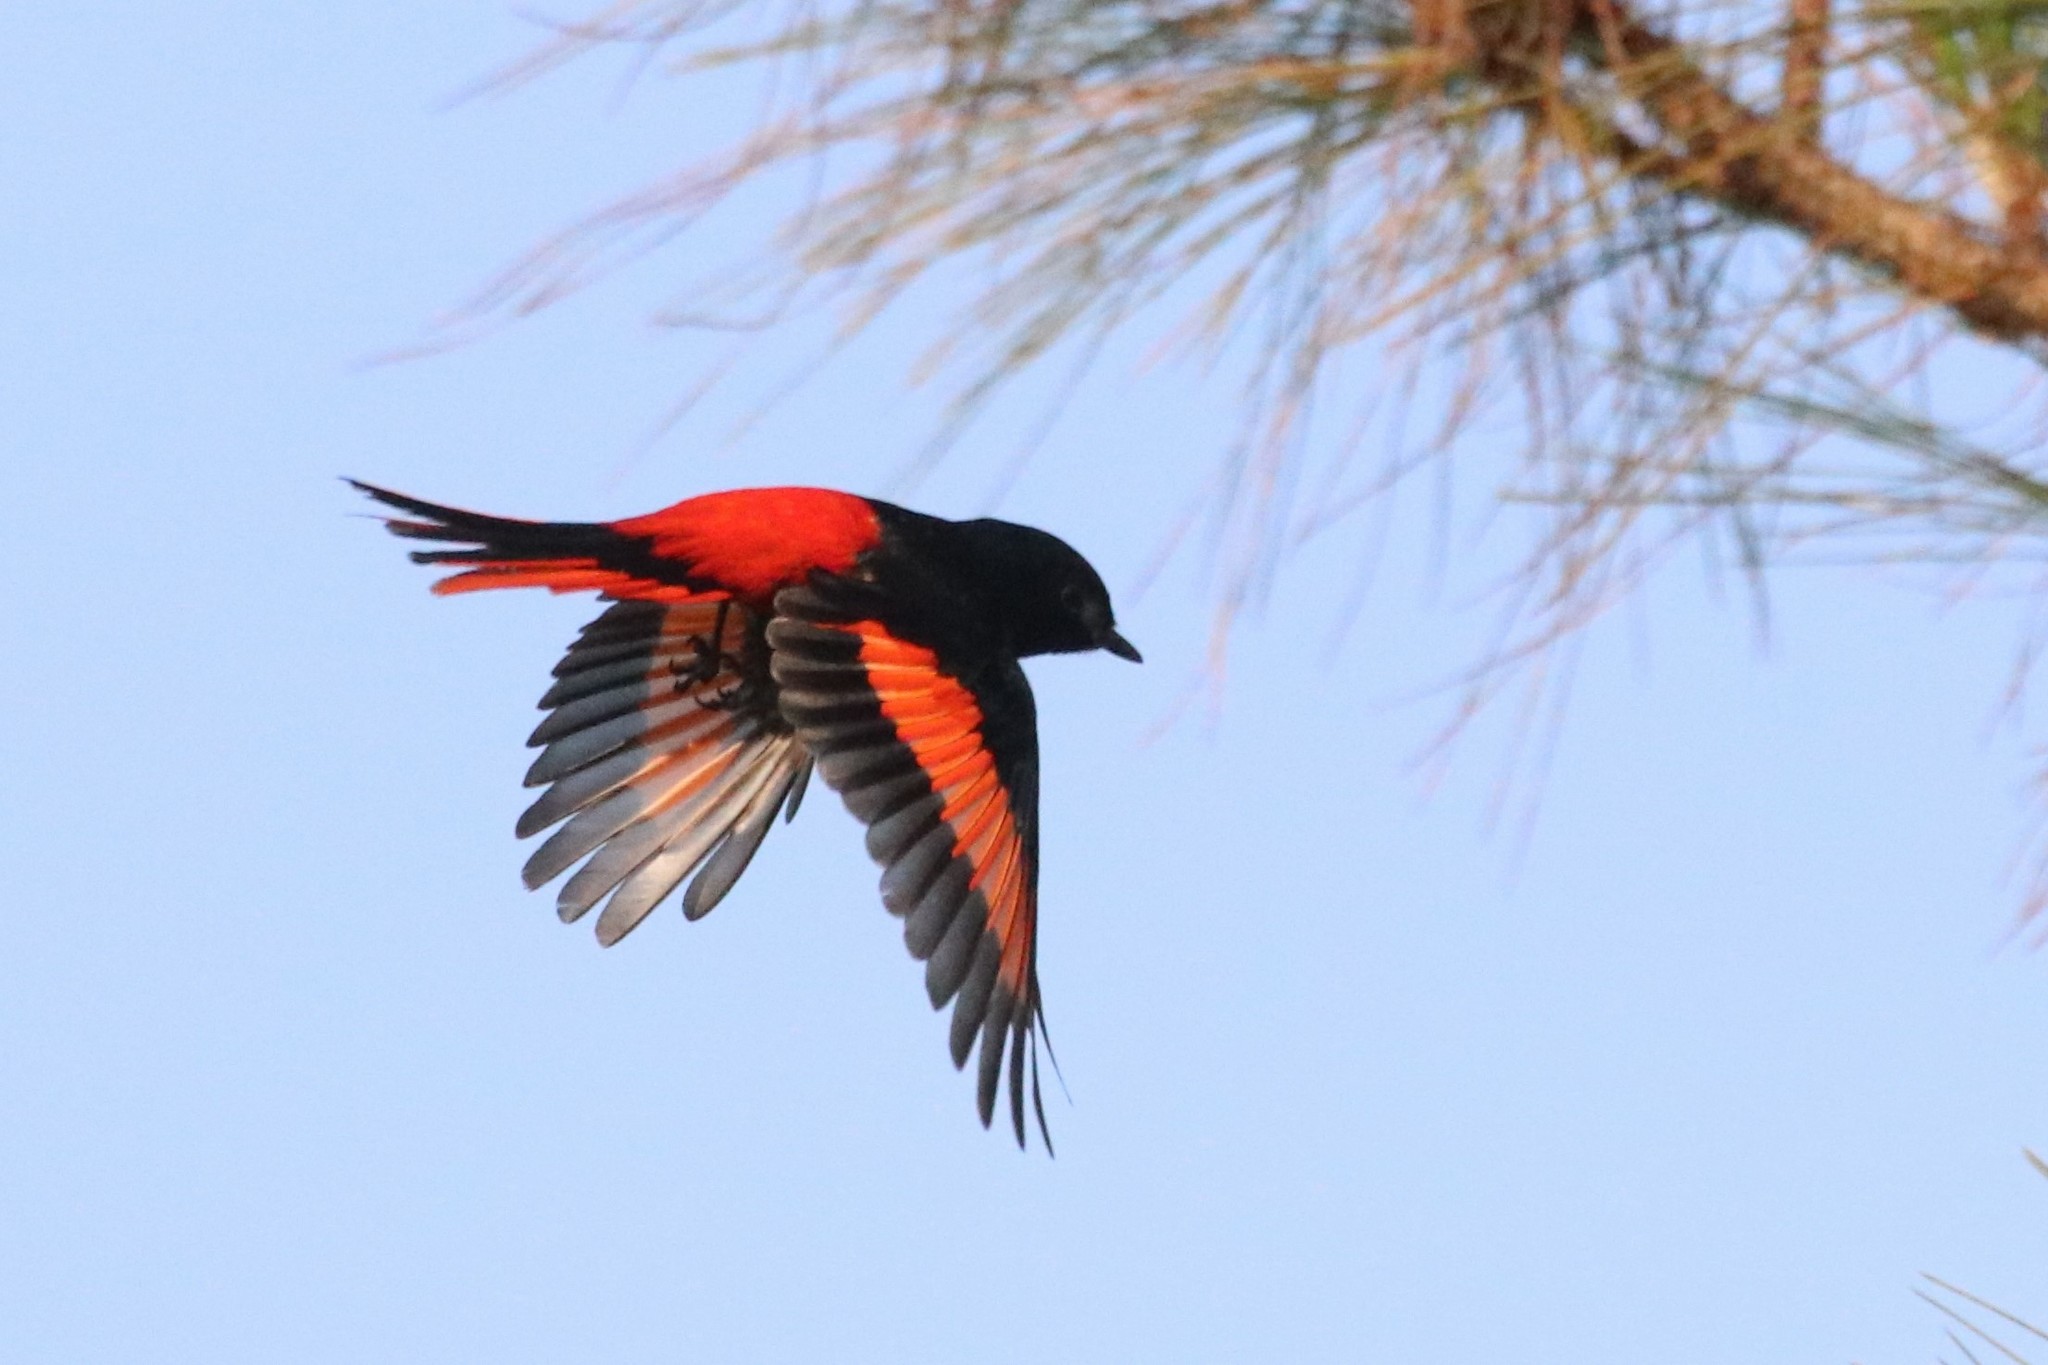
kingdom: Animalia
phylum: Chordata
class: Aves
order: Passeriformes
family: Campephagidae
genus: Pericrocotus
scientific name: Pericrocotus brevirostris
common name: Short-billed minivet
